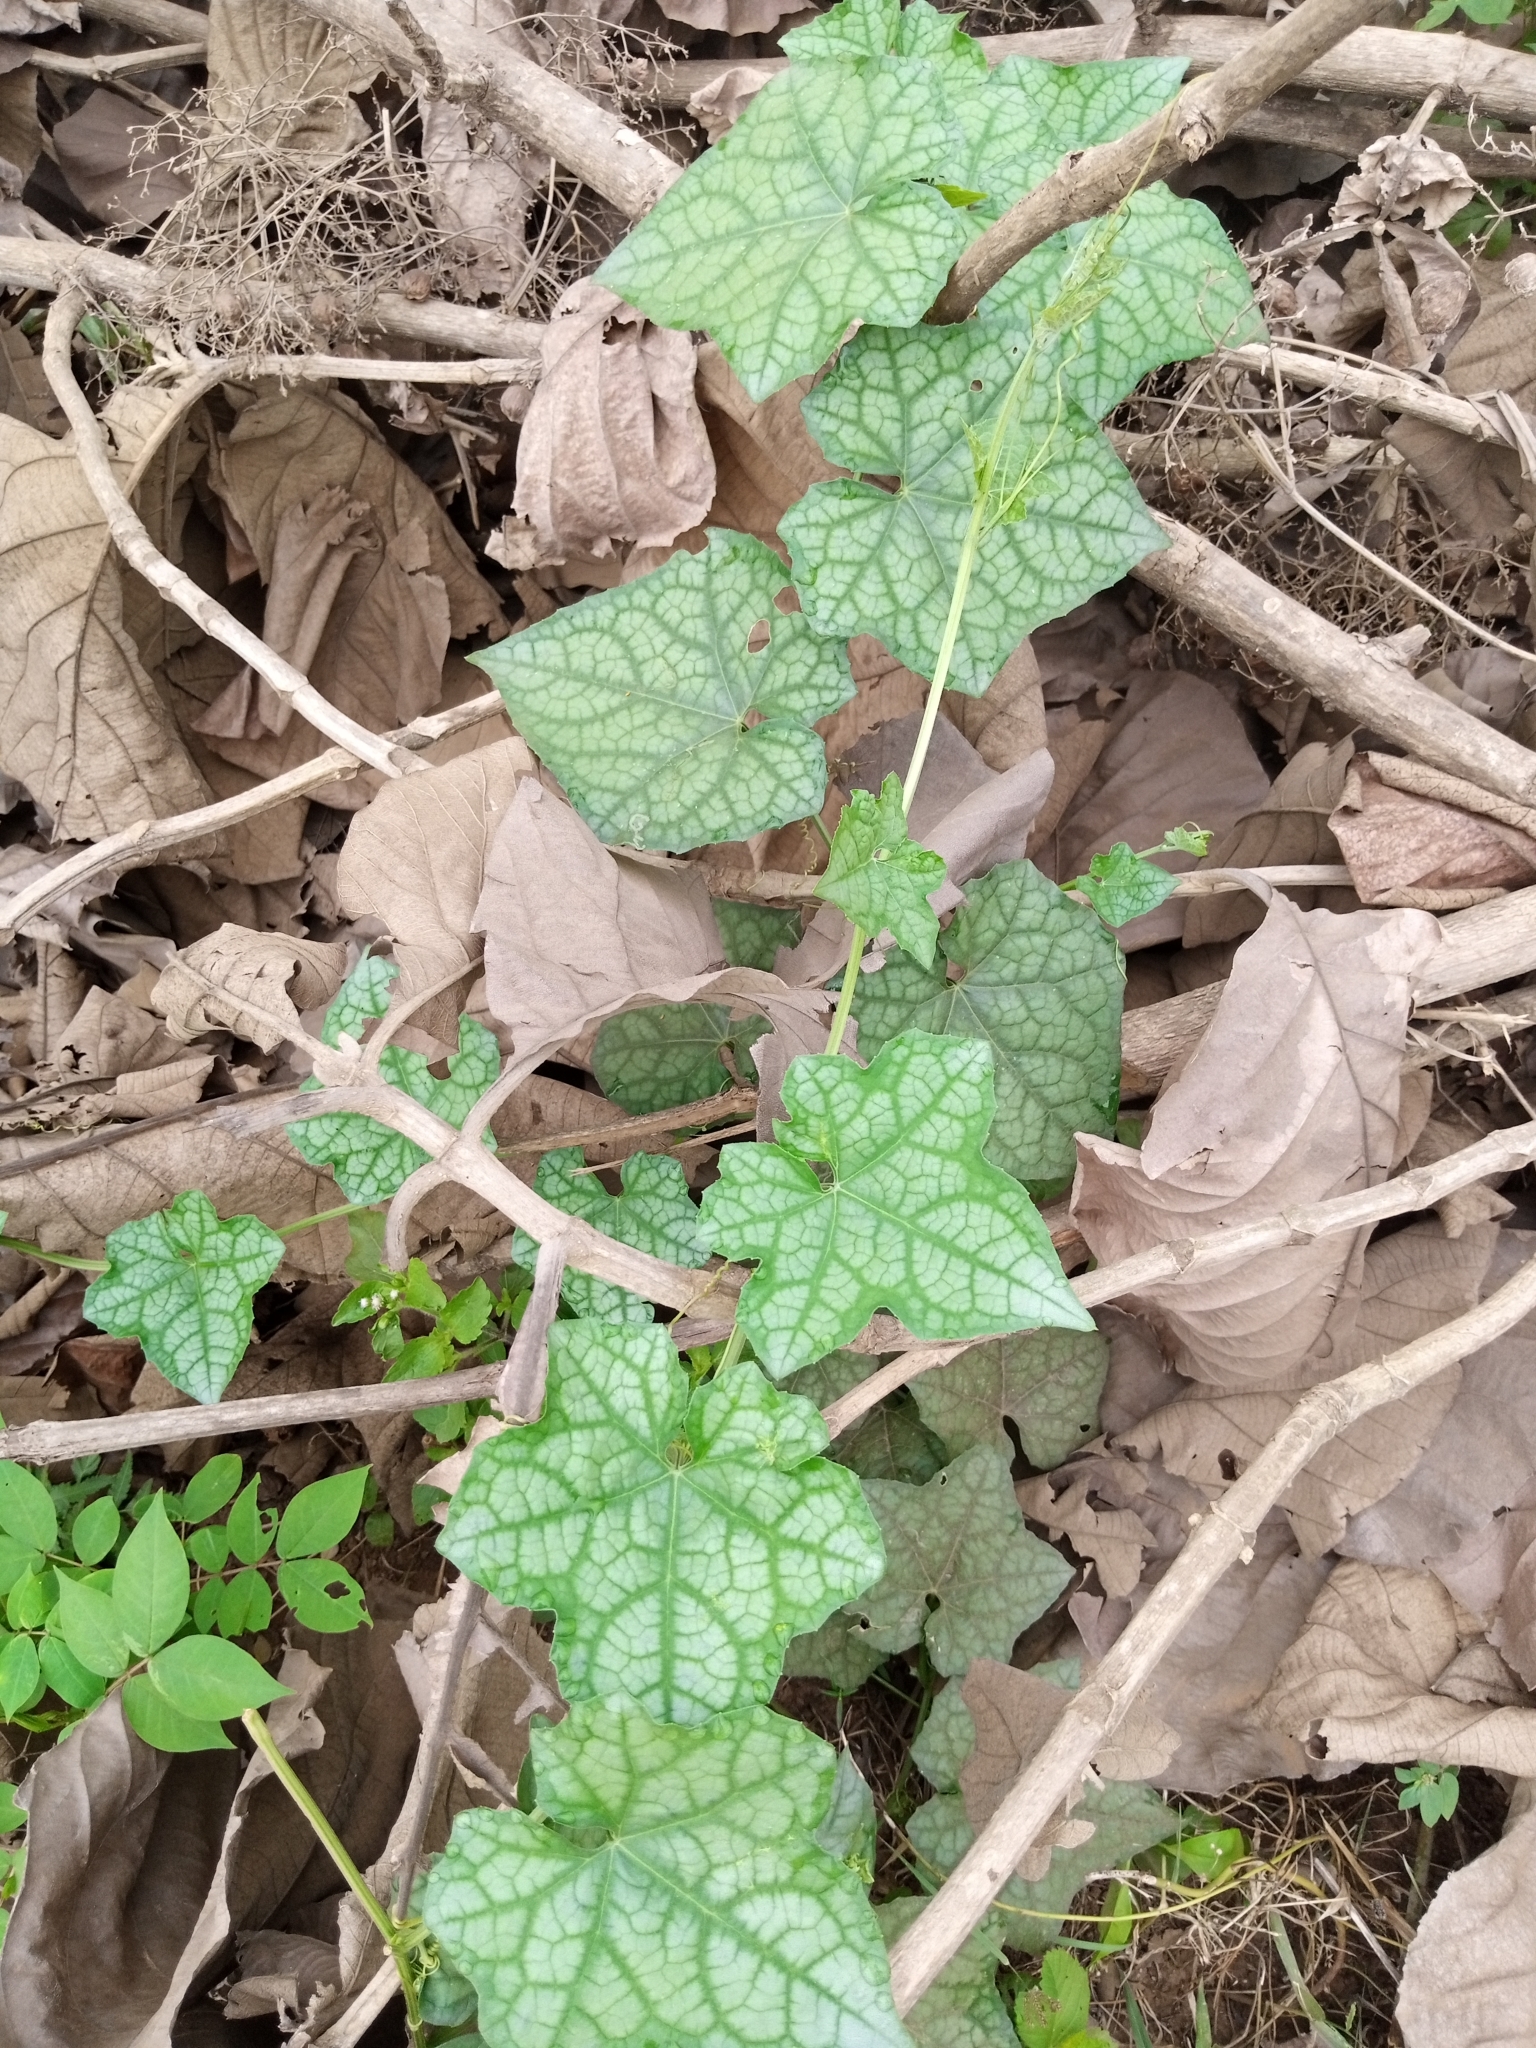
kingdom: Plantae
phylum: Tracheophyta
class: Magnoliopsida
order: Cucurbitales
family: Cucurbitaceae
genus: Luffa
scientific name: Luffa aegyptiaca
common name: Sponge gourd
